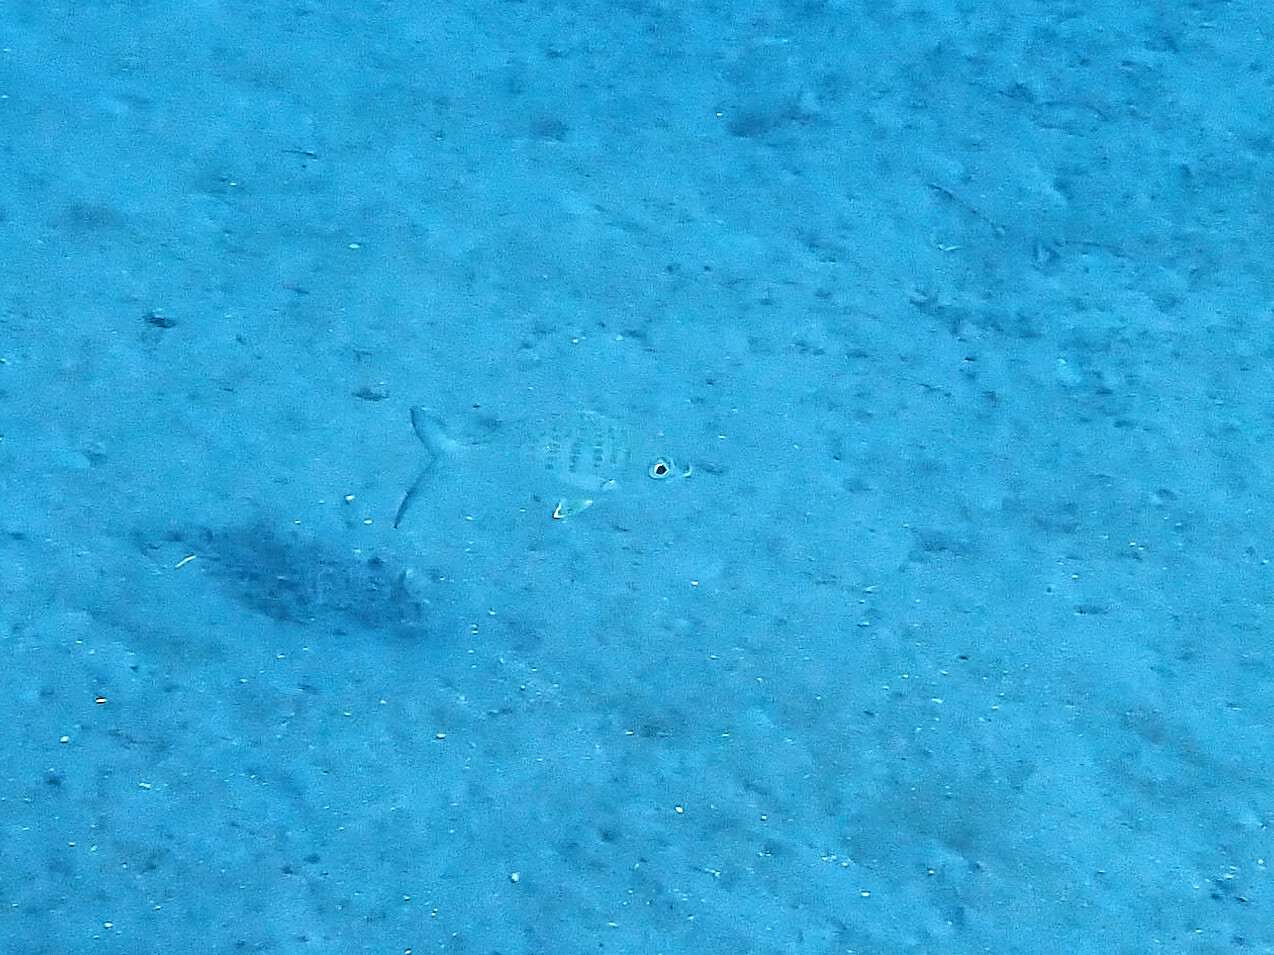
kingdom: Animalia
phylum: Chordata
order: Perciformes
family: Gerreidae
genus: Gerres
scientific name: Gerres cinereus
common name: Hedow
